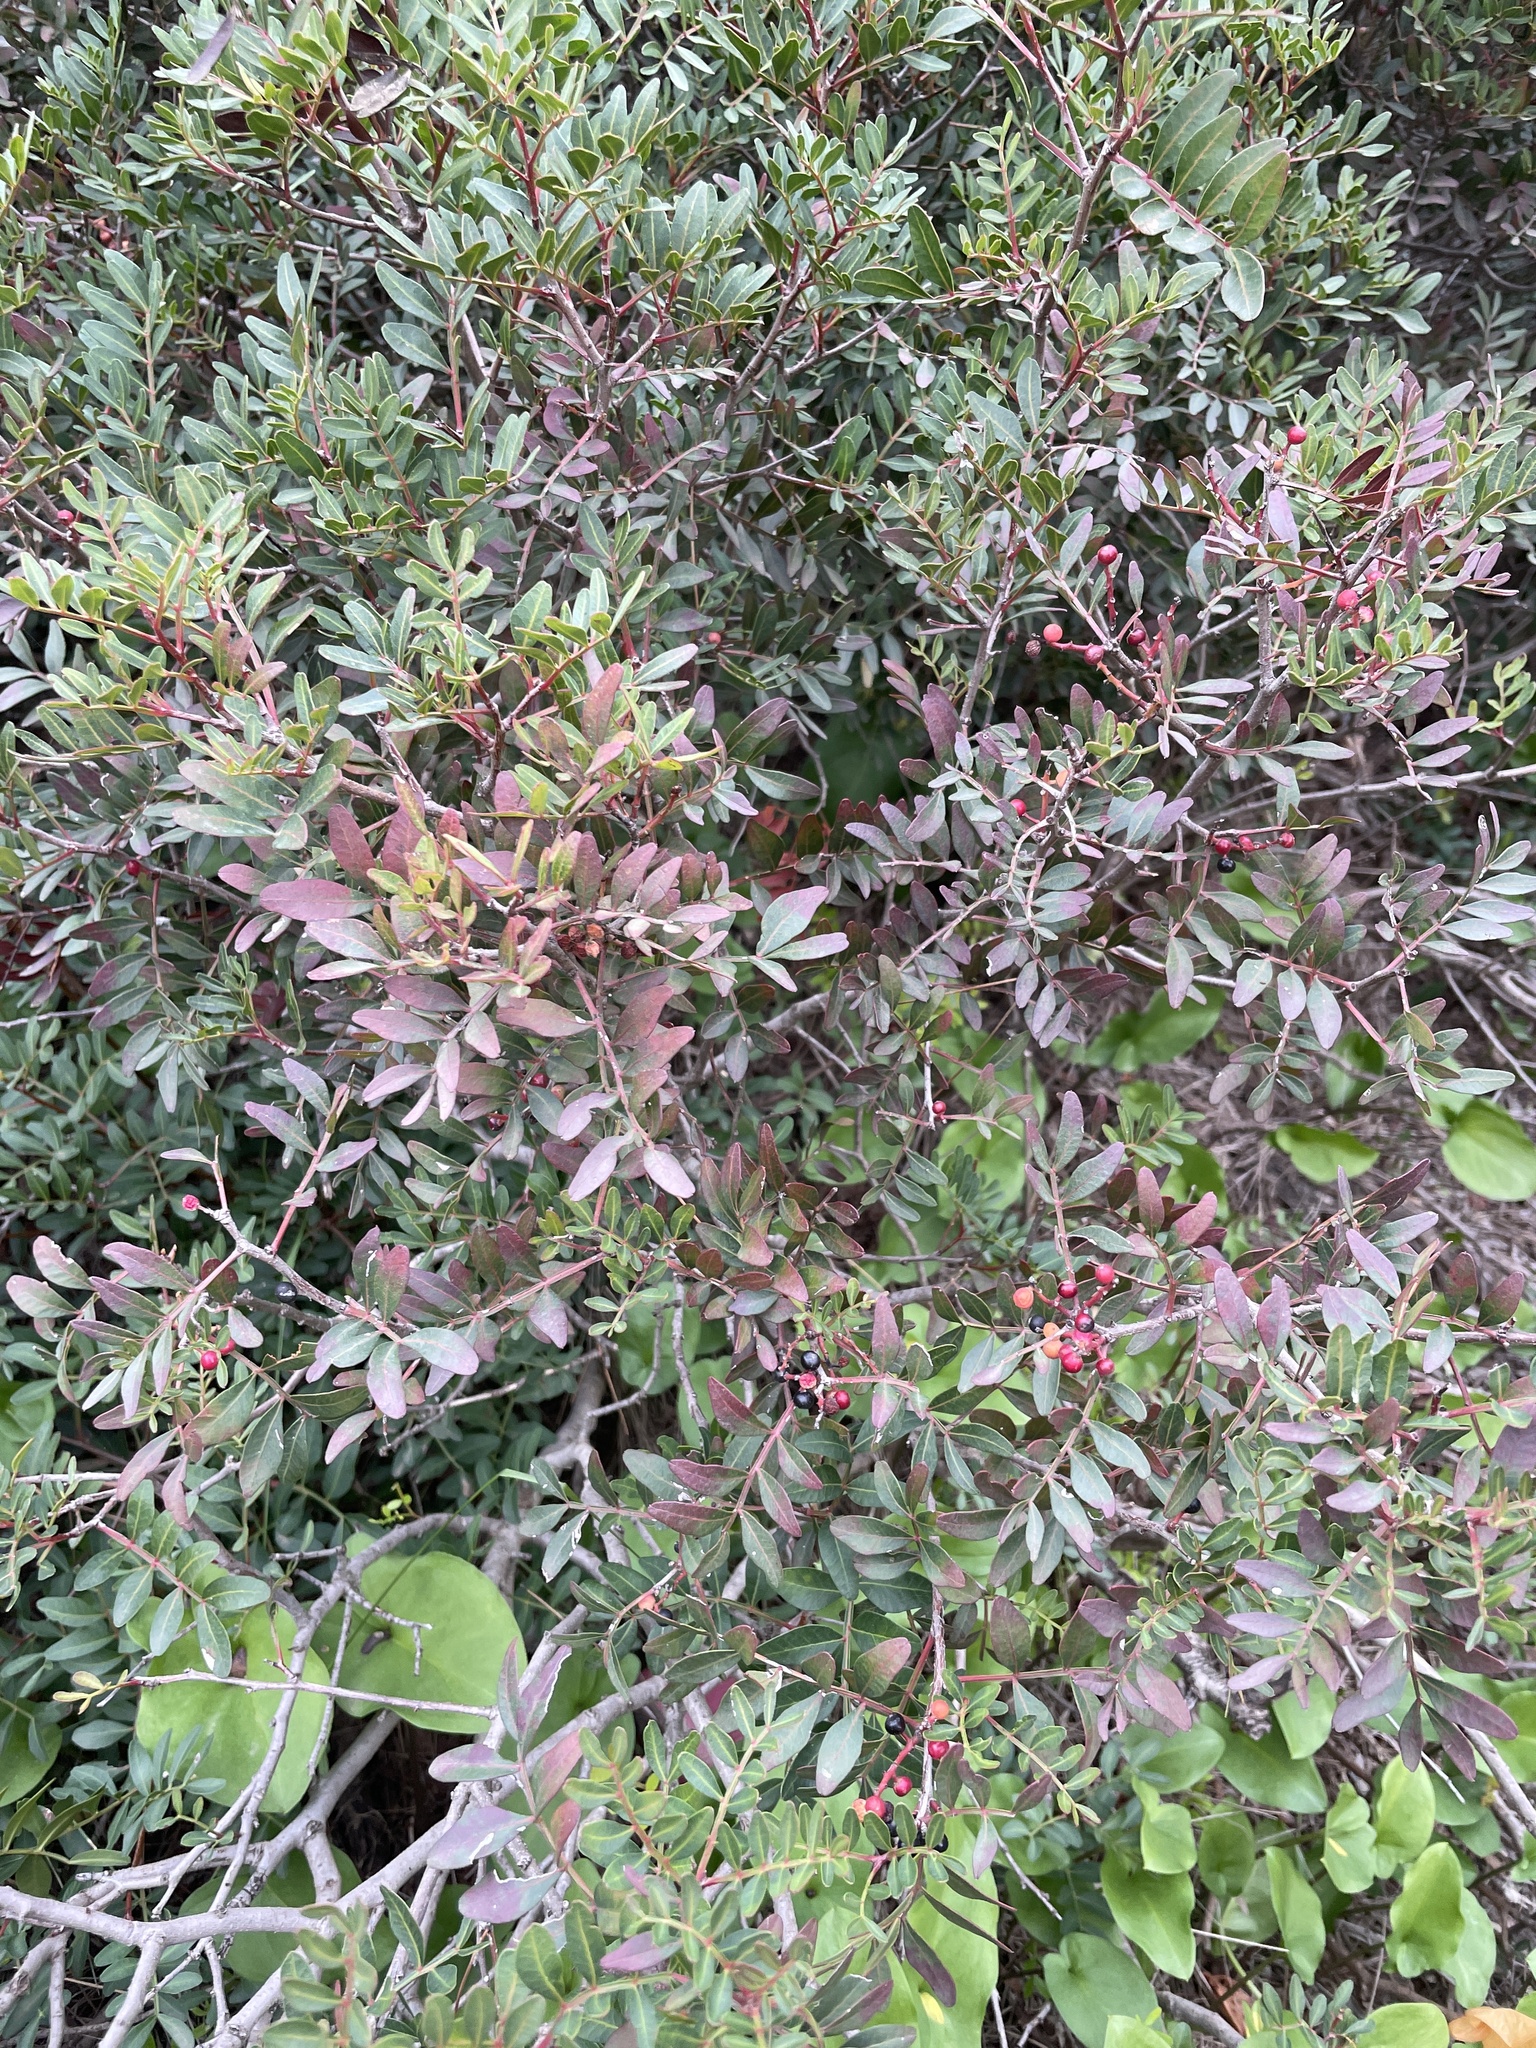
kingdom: Plantae
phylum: Tracheophyta
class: Magnoliopsida
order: Sapindales
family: Anacardiaceae
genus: Pistacia
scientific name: Pistacia lentiscus
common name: Lentisk
